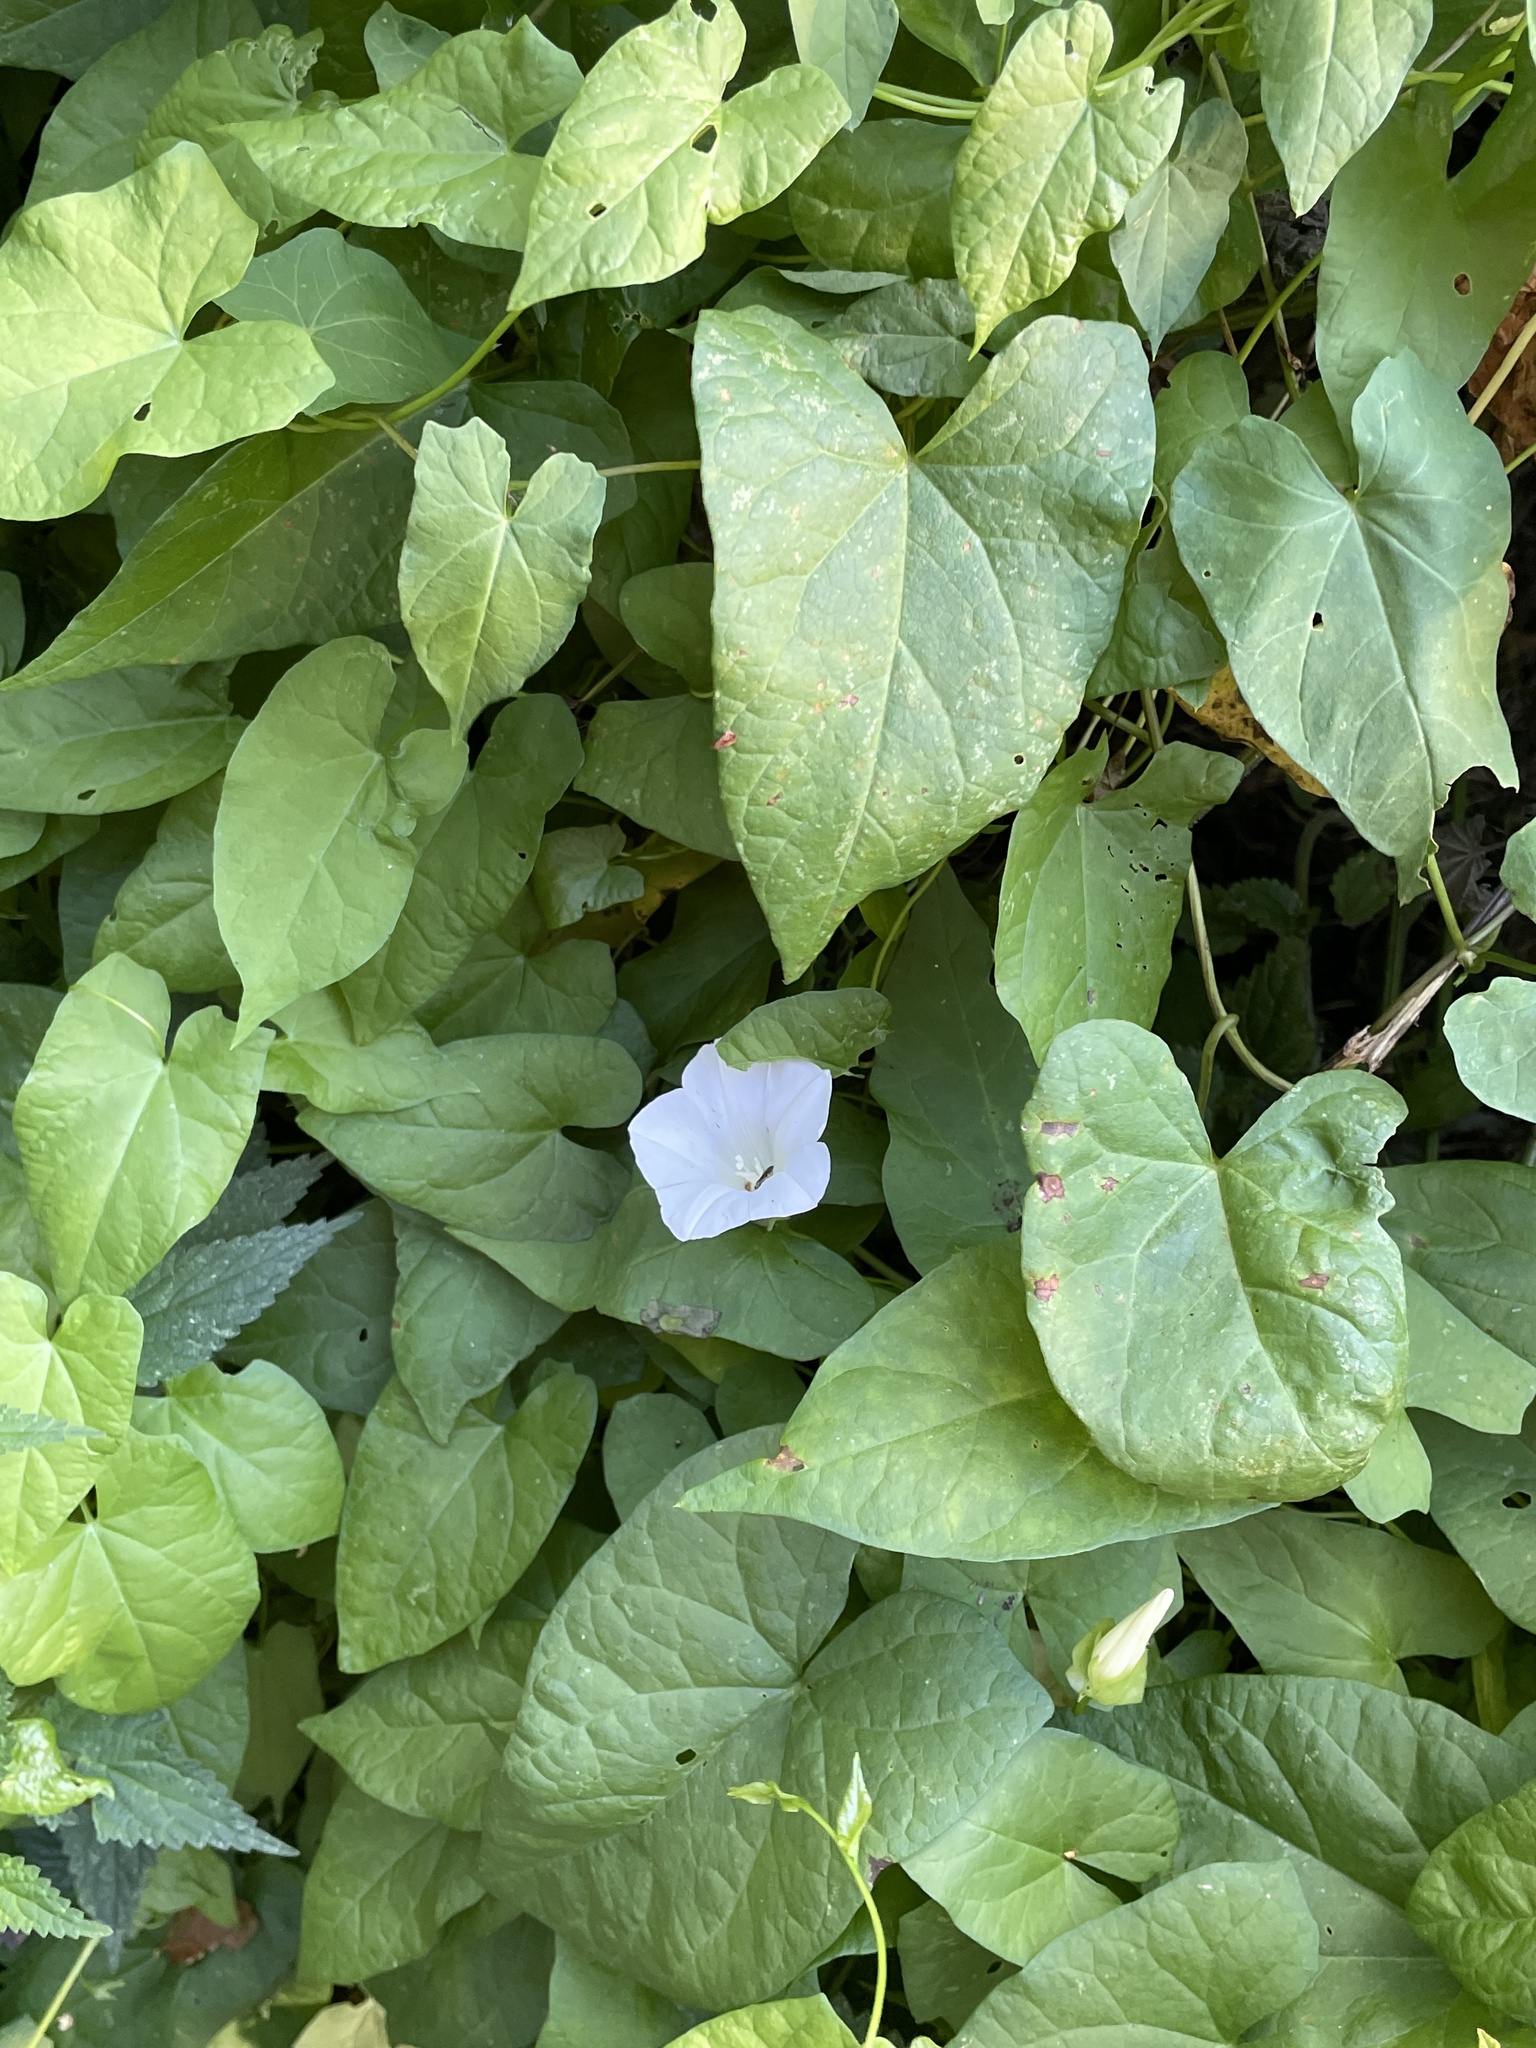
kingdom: Plantae
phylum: Tracheophyta
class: Magnoliopsida
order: Solanales
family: Convolvulaceae
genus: Calystegia
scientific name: Calystegia sepium
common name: Hedge bindweed
